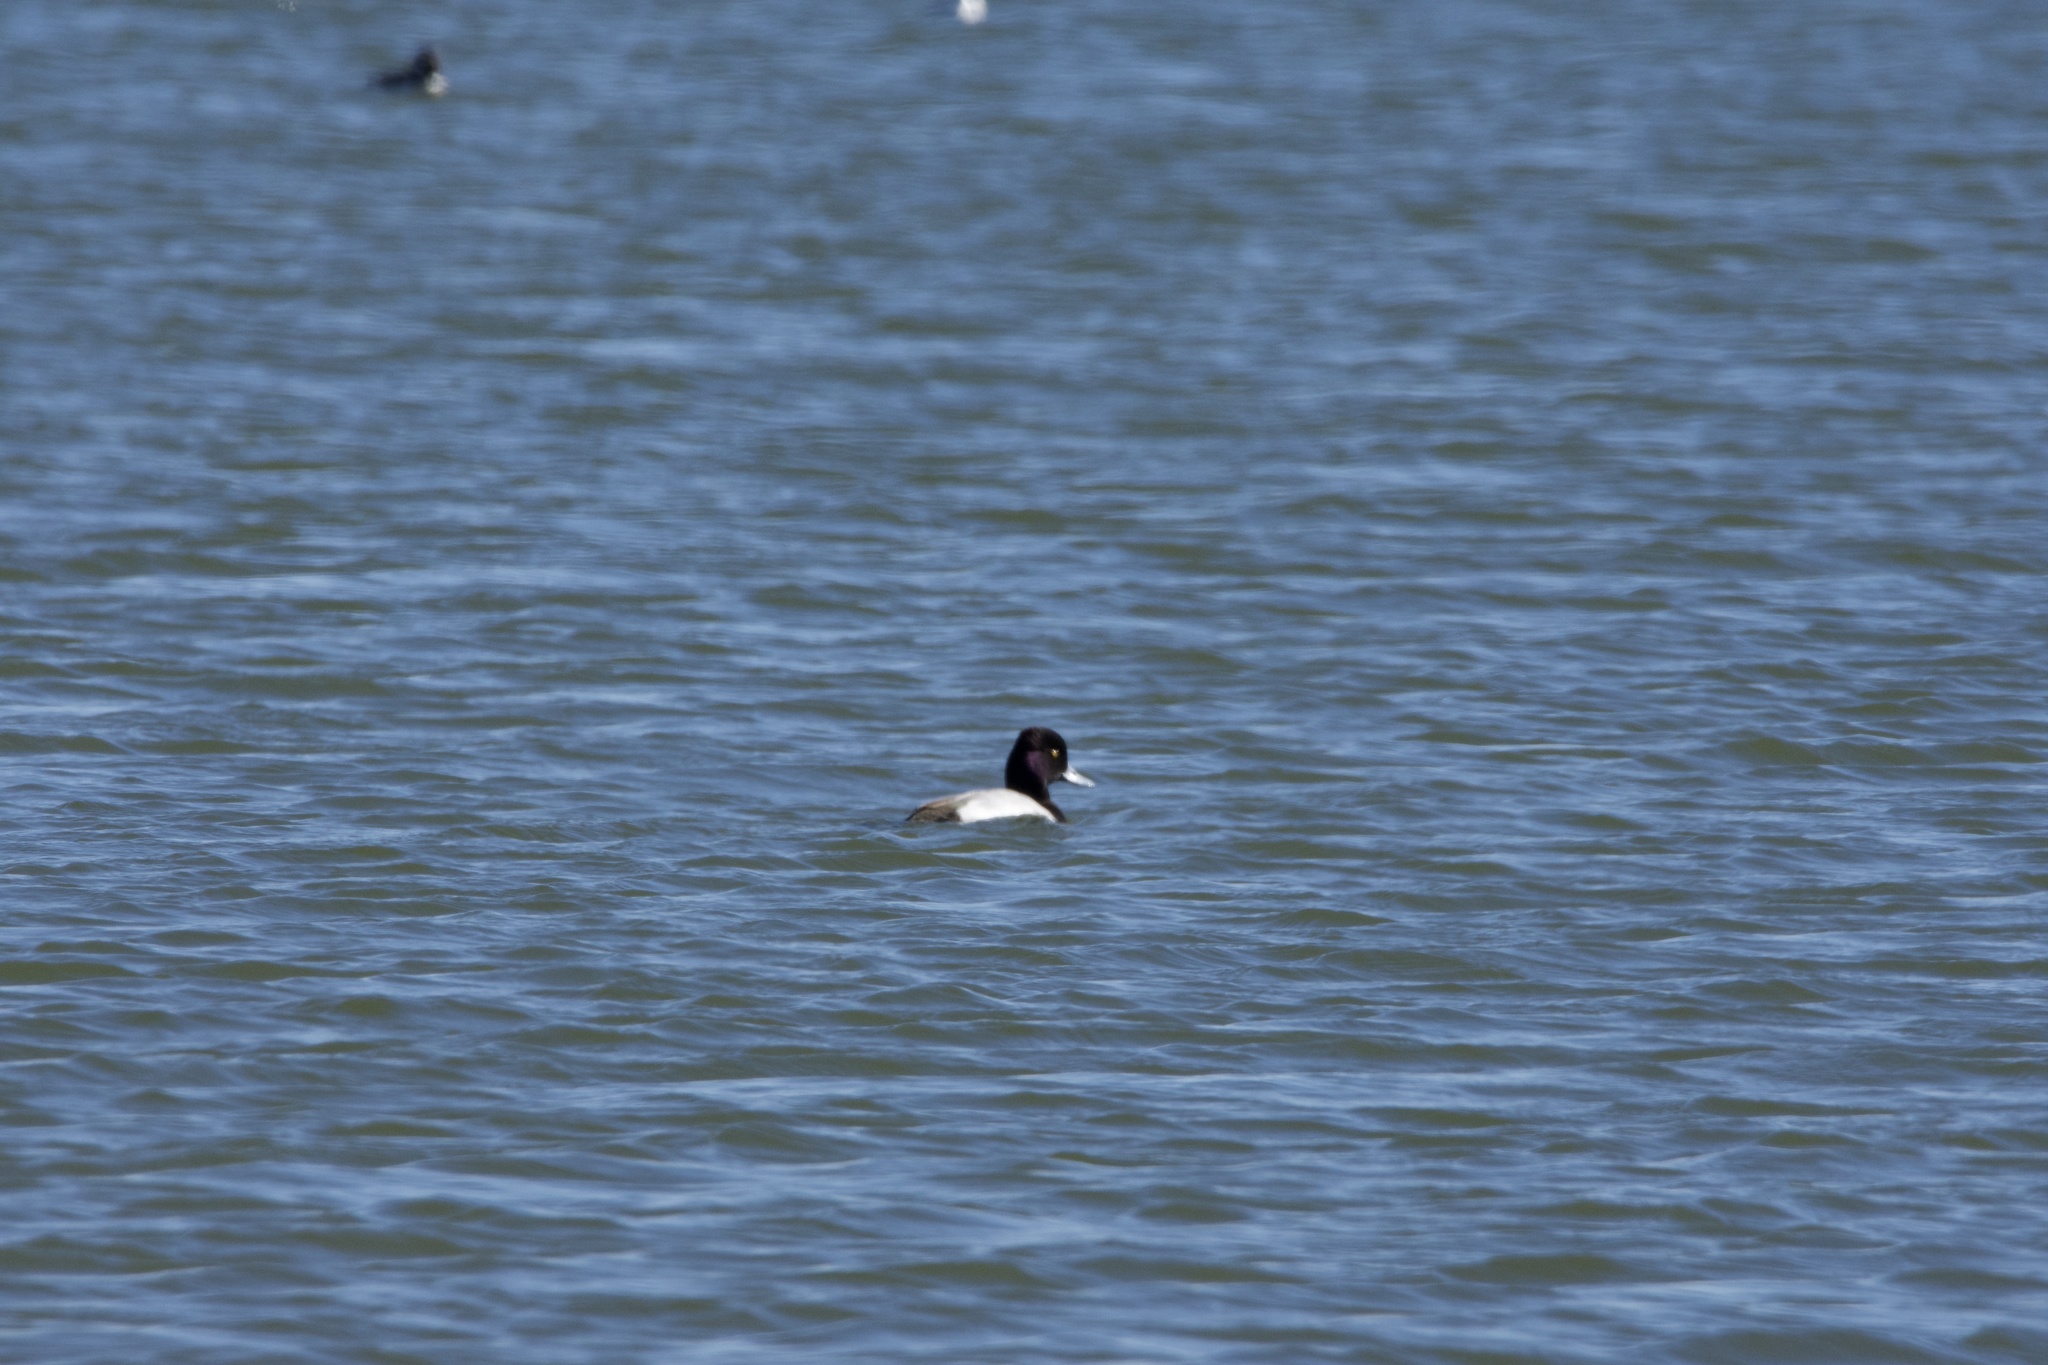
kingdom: Animalia
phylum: Chordata
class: Aves
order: Anseriformes
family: Anatidae
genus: Aythya
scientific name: Aythya affinis
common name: Lesser scaup
